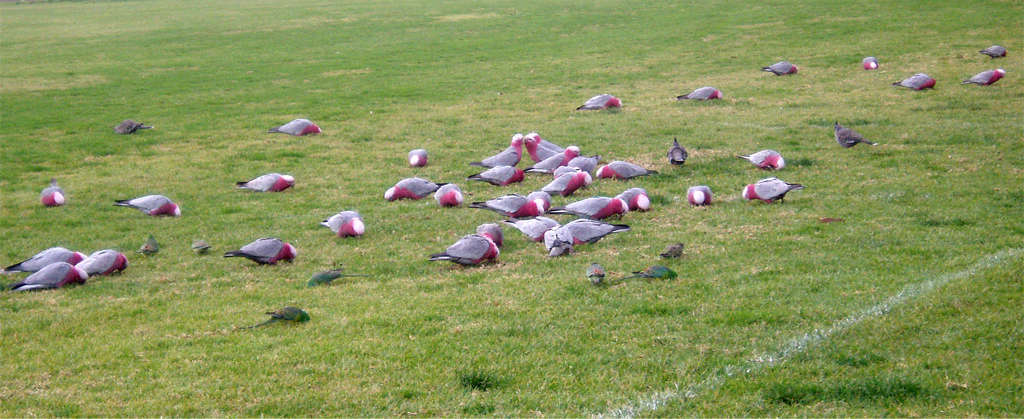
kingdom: Animalia
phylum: Chordata
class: Aves
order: Columbiformes
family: Columbidae
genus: Ocyphaps
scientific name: Ocyphaps lophotes
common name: Crested pigeon
